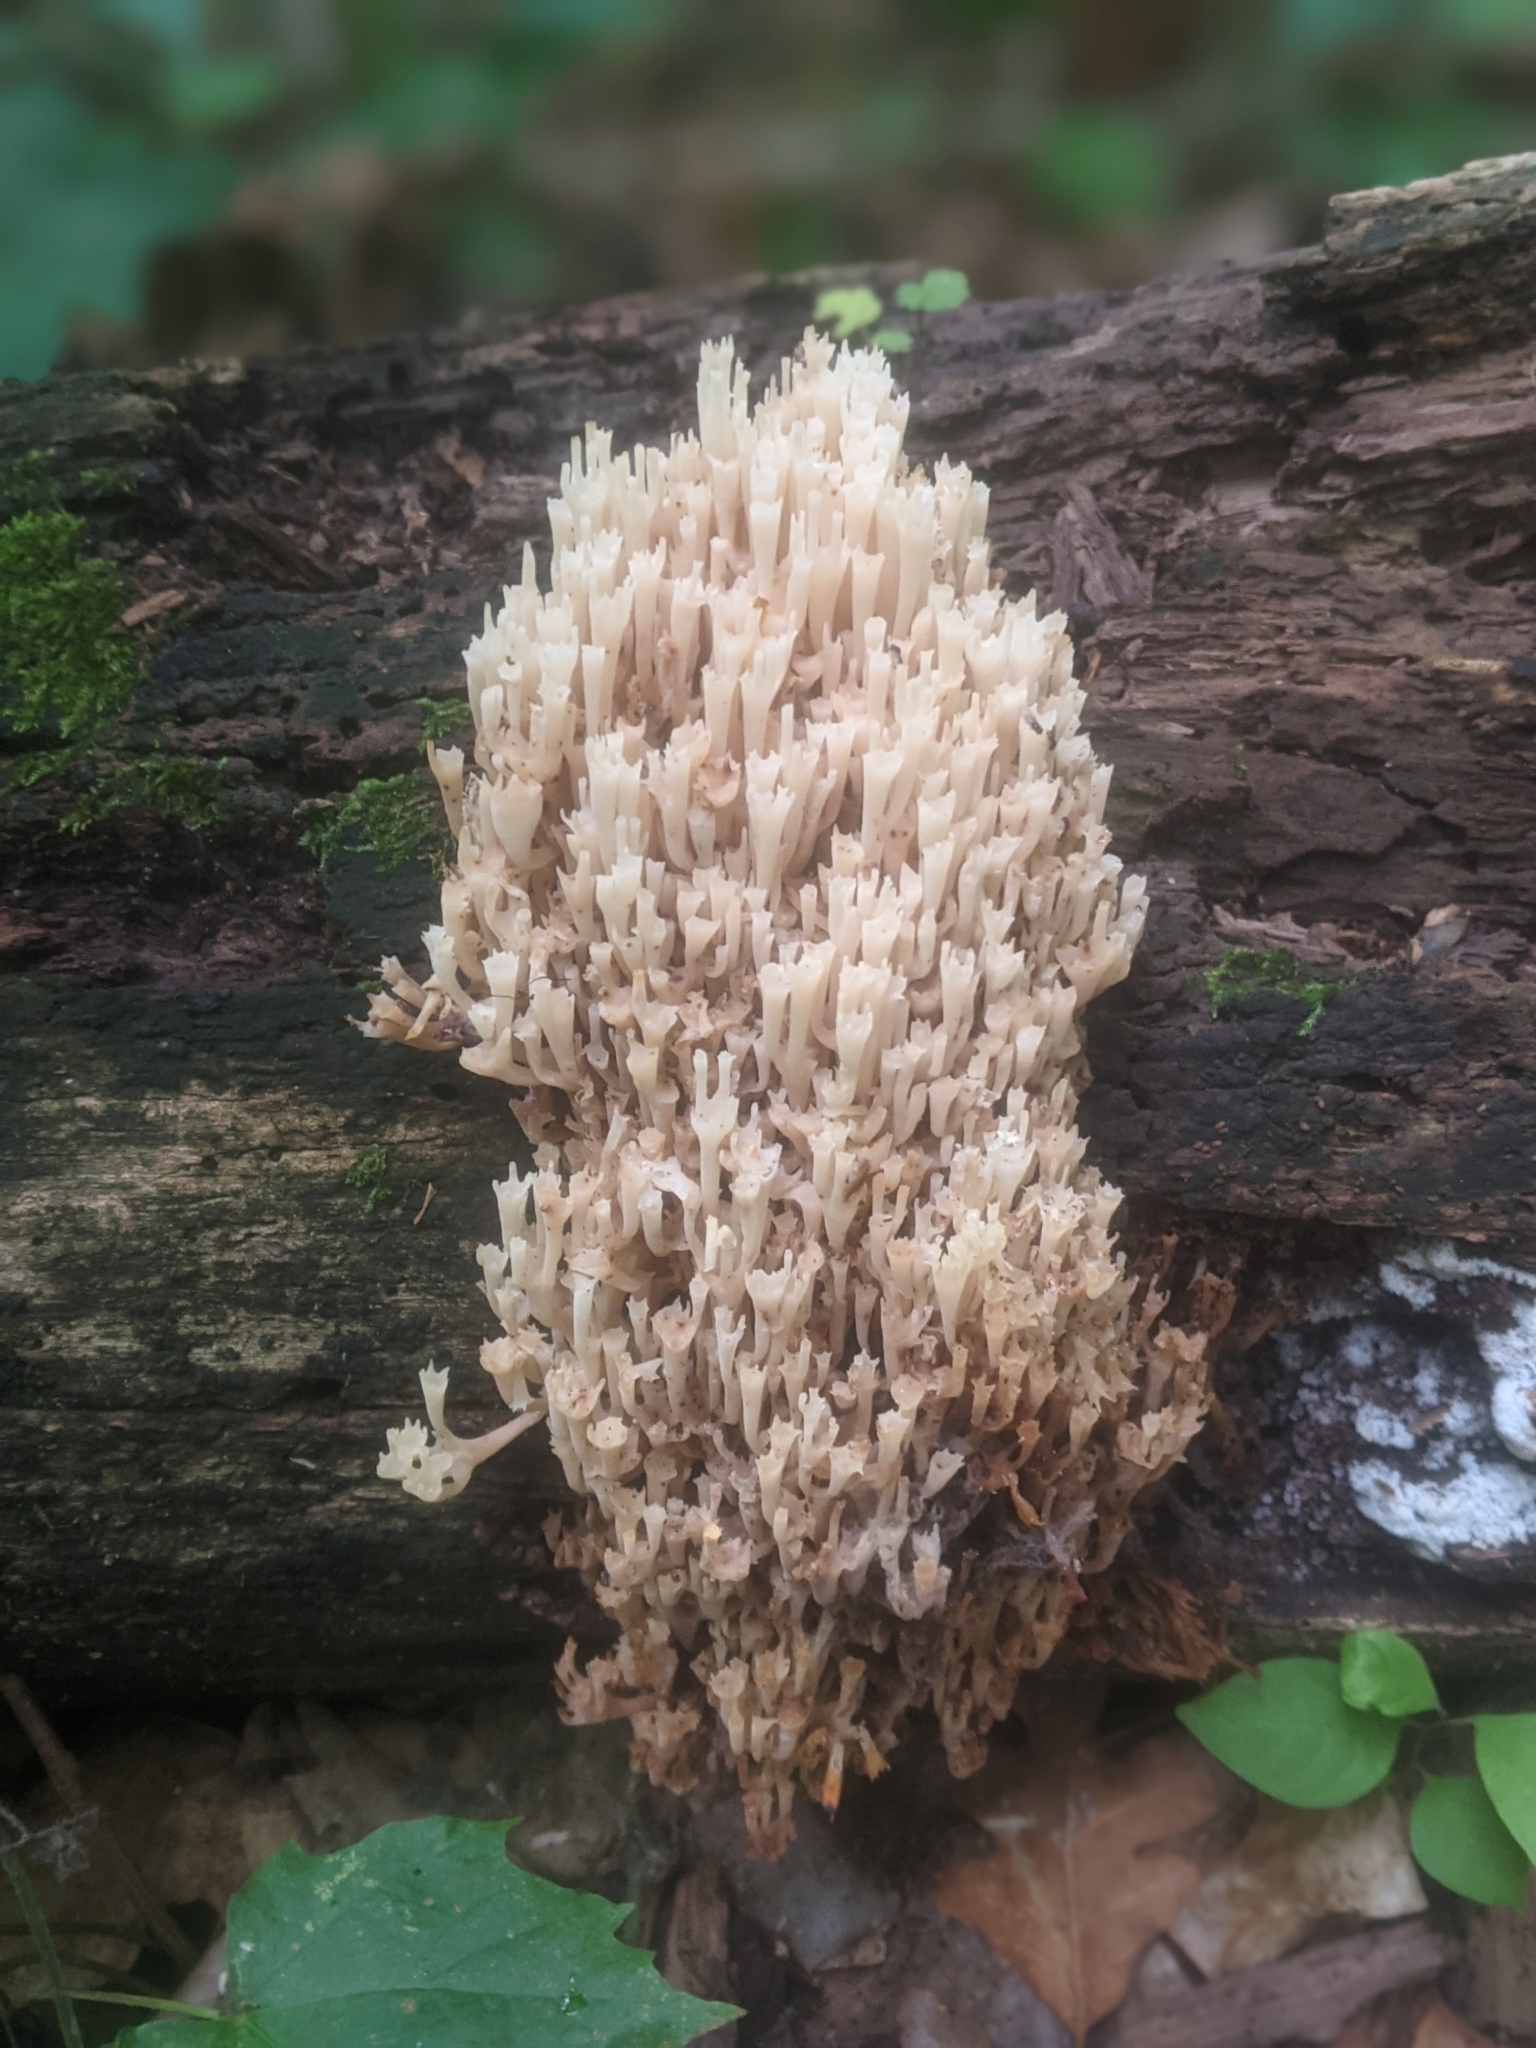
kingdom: Fungi
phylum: Basidiomycota
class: Agaricomycetes
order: Russulales
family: Auriscalpiaceae
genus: Artomyces
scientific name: Artomyces pyxidatus
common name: Crown-tipped coral fungus
